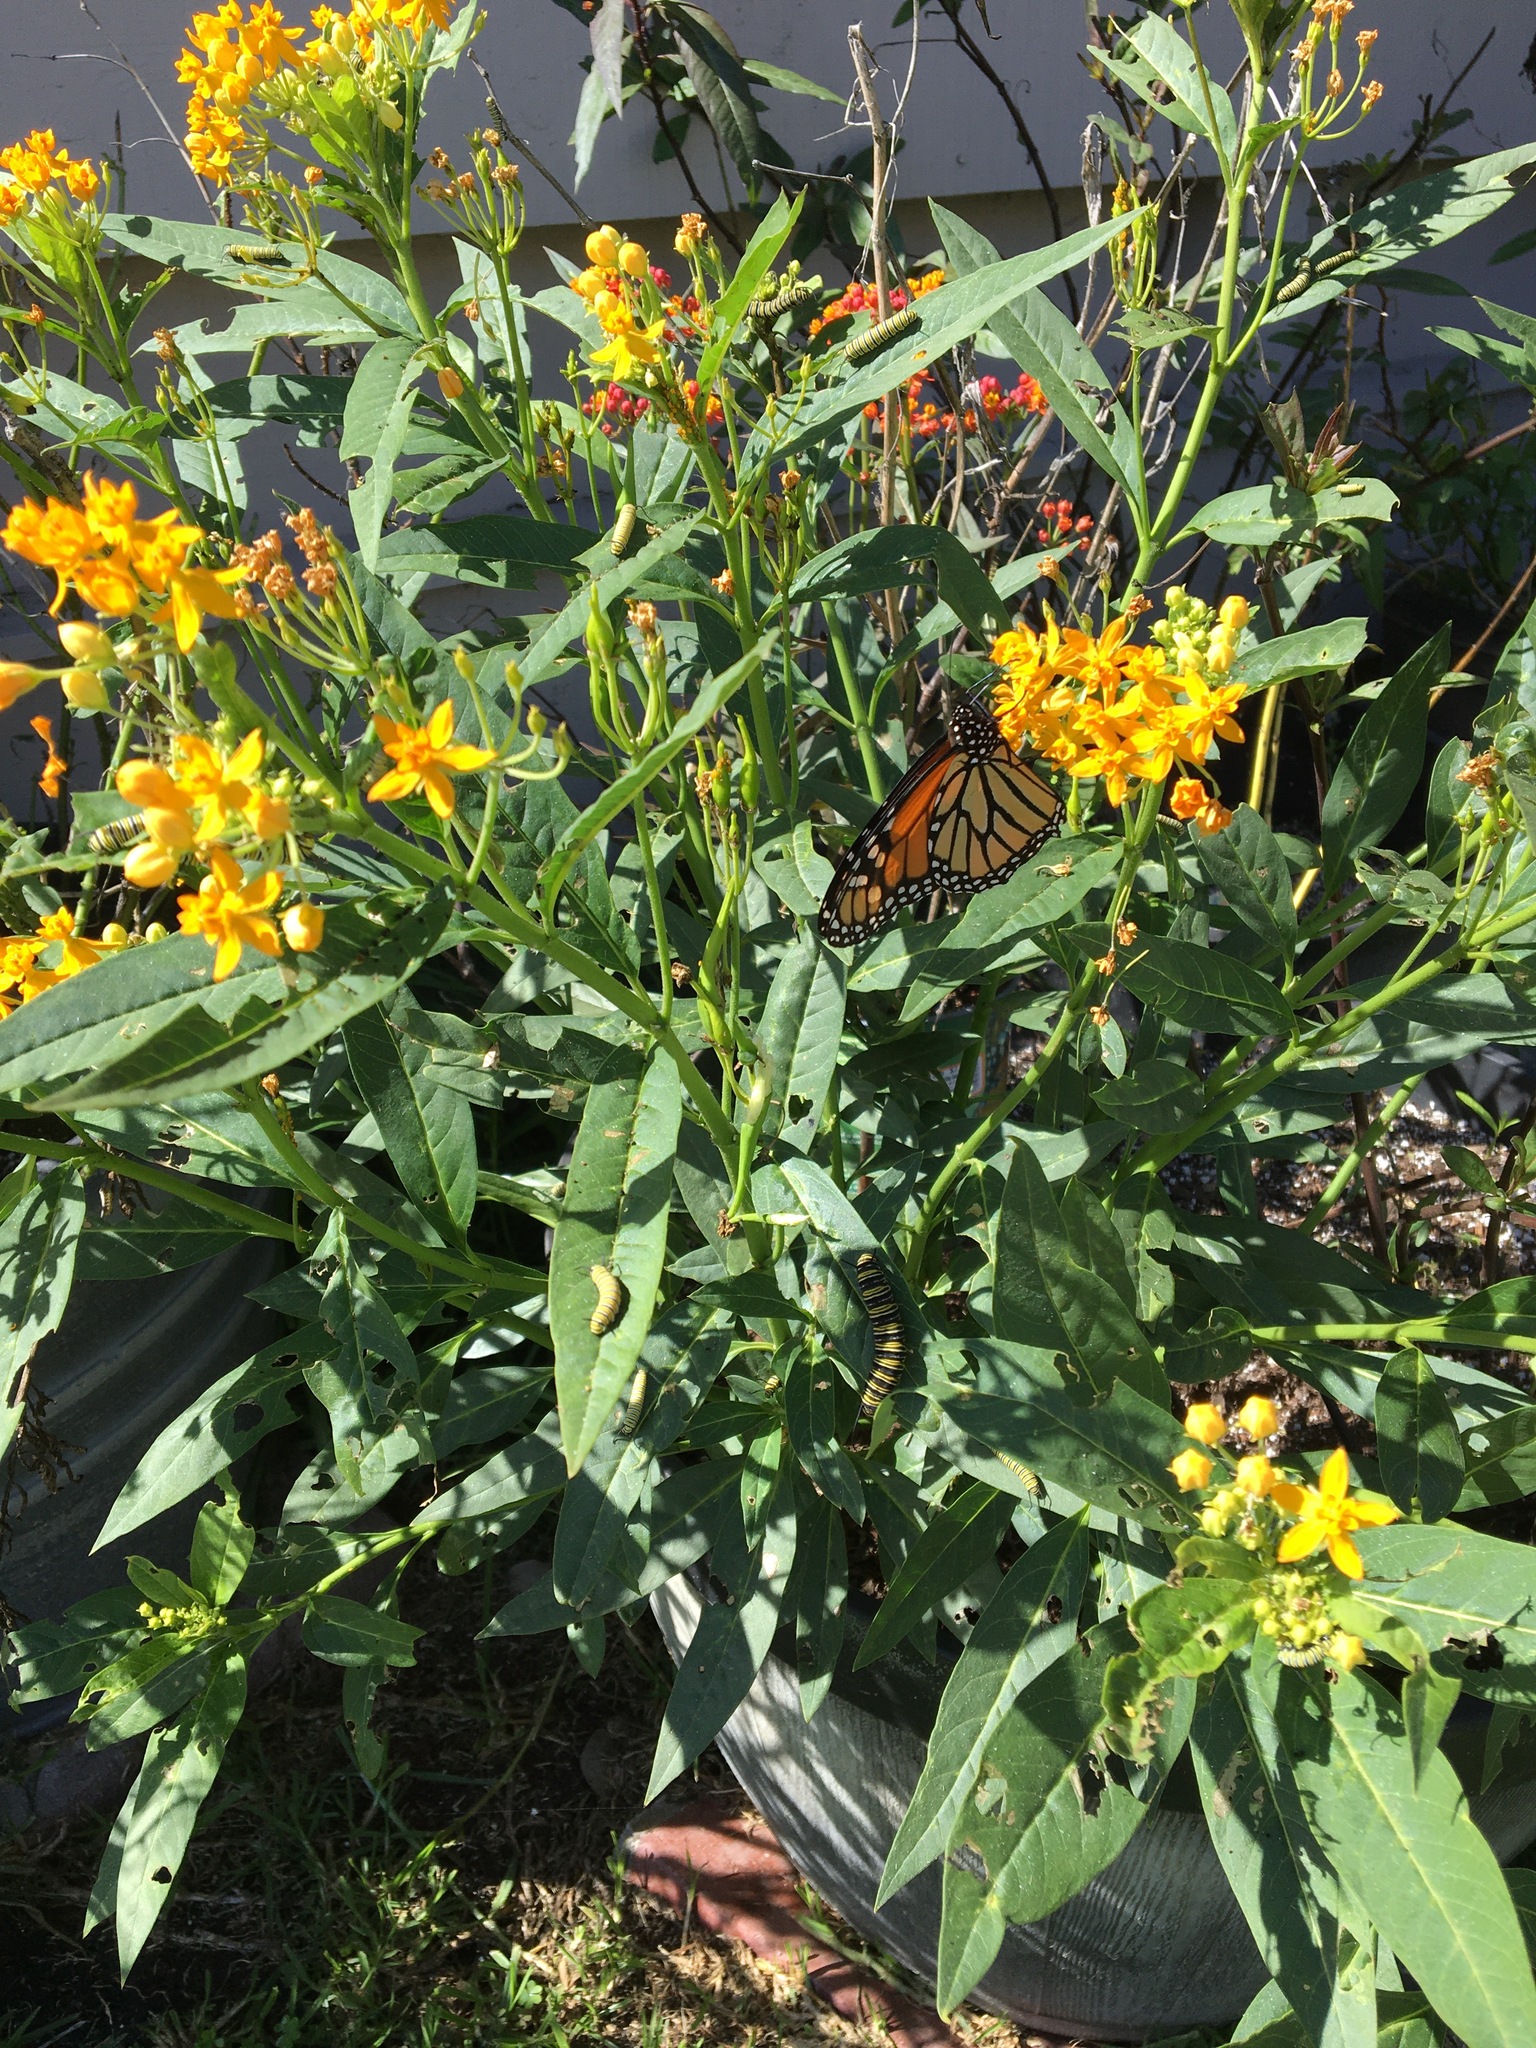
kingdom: Animalia
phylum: Arthropoda
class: Insecta
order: Lepidoptera
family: Nymphalidae
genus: Danaus
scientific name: Danaus plexippus
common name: Monarch
